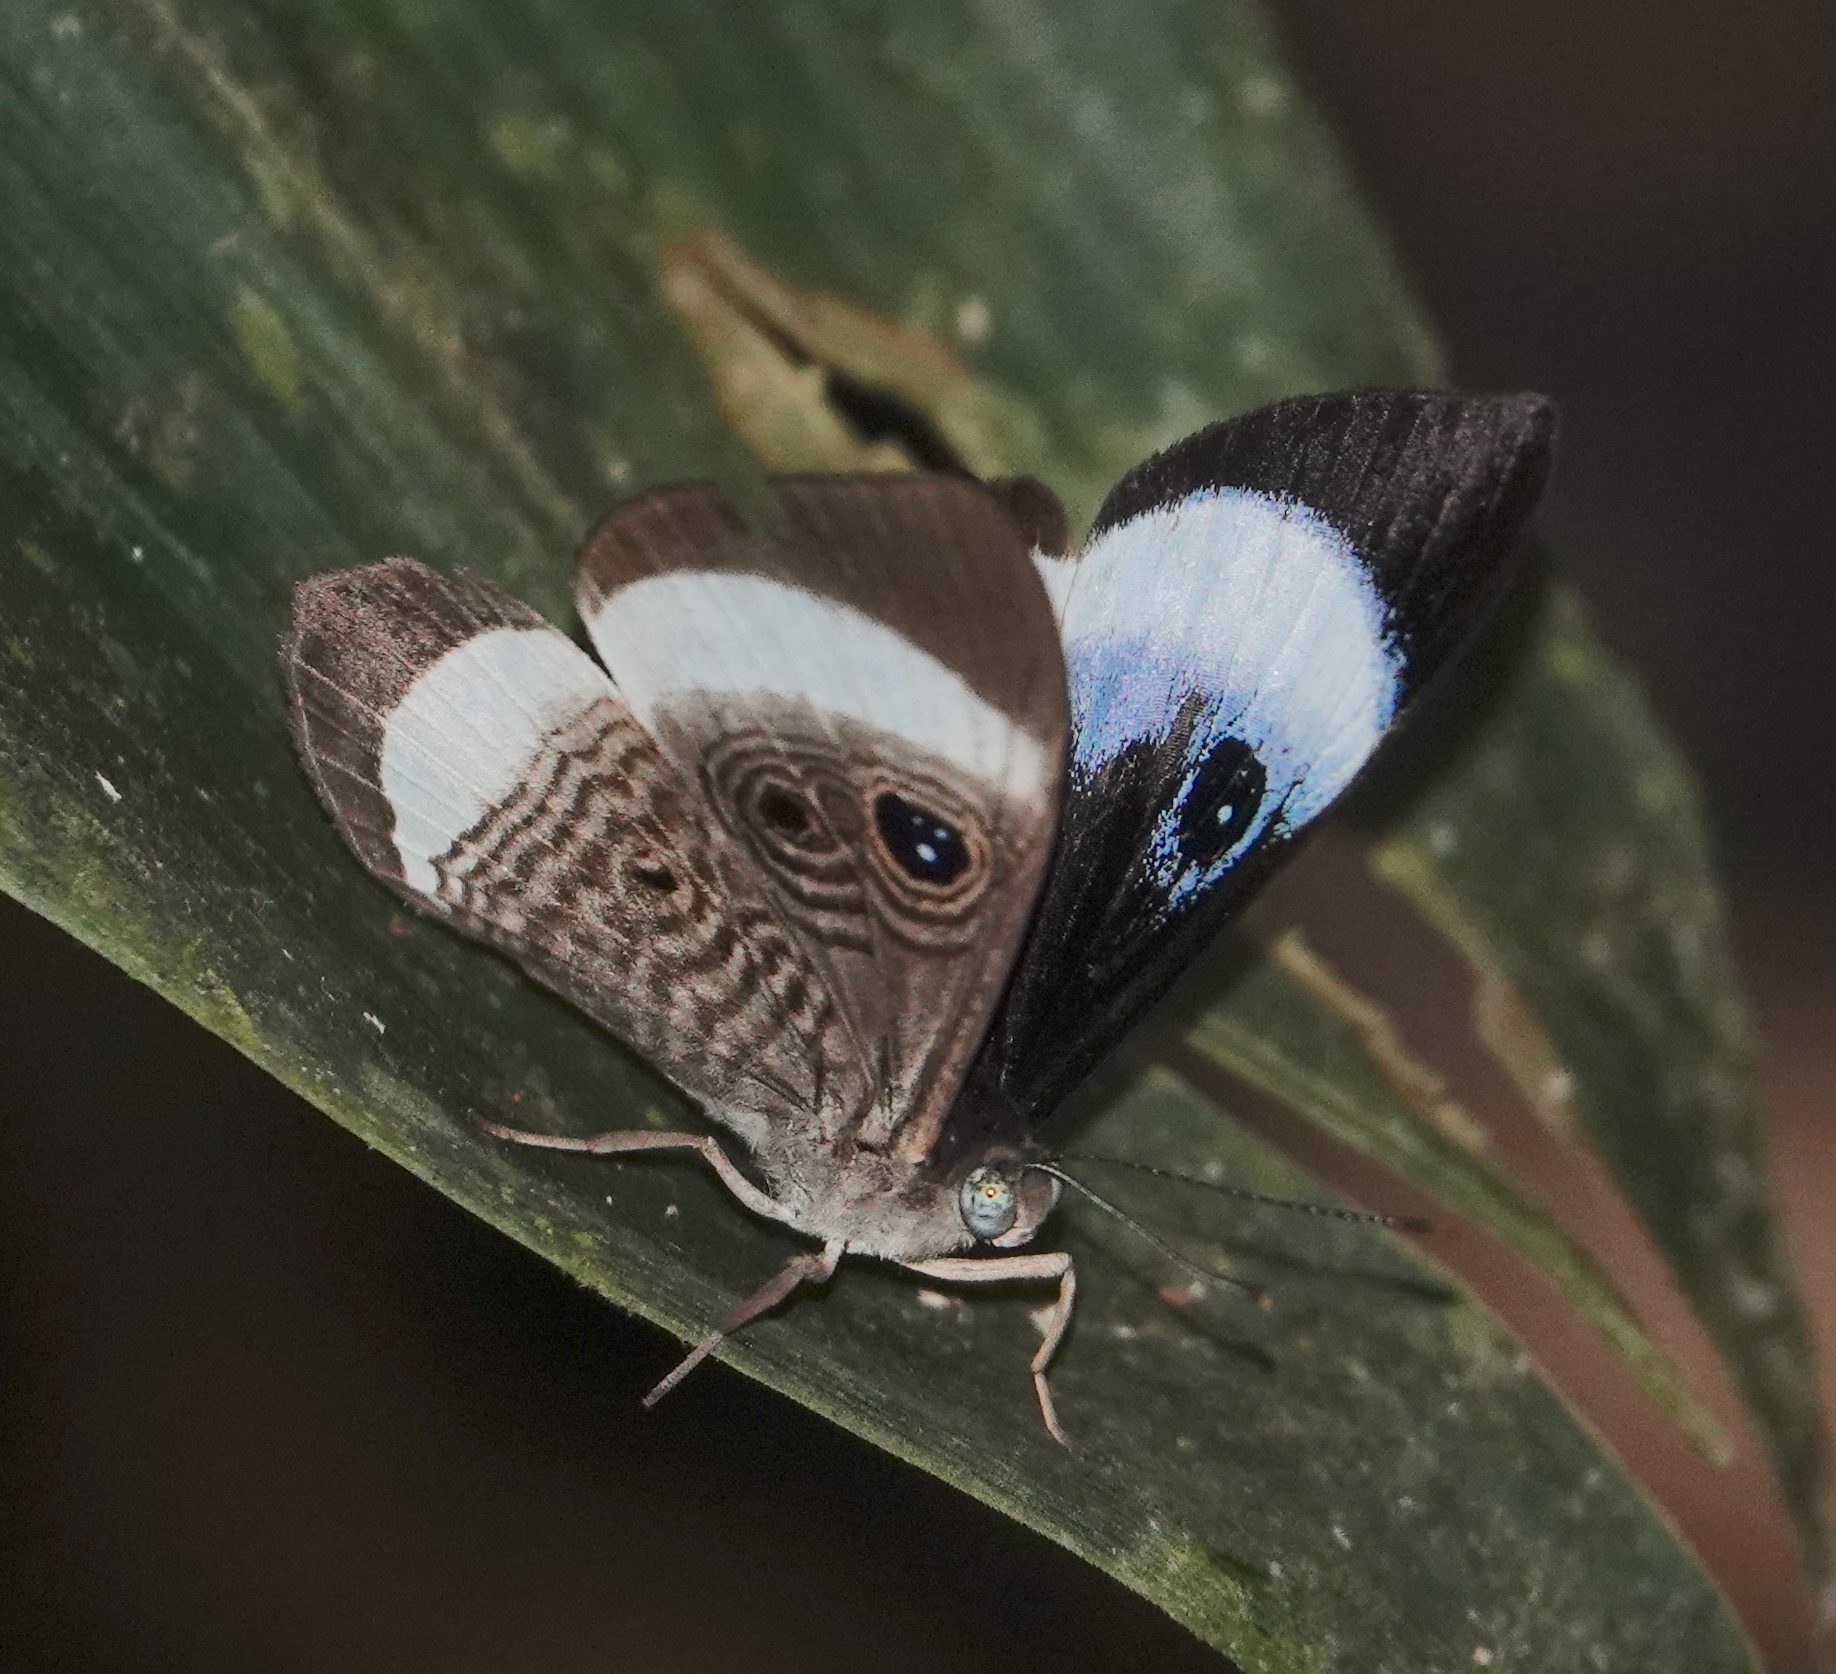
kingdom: Animalia
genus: Mesosemia
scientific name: Mesosemia philocles
